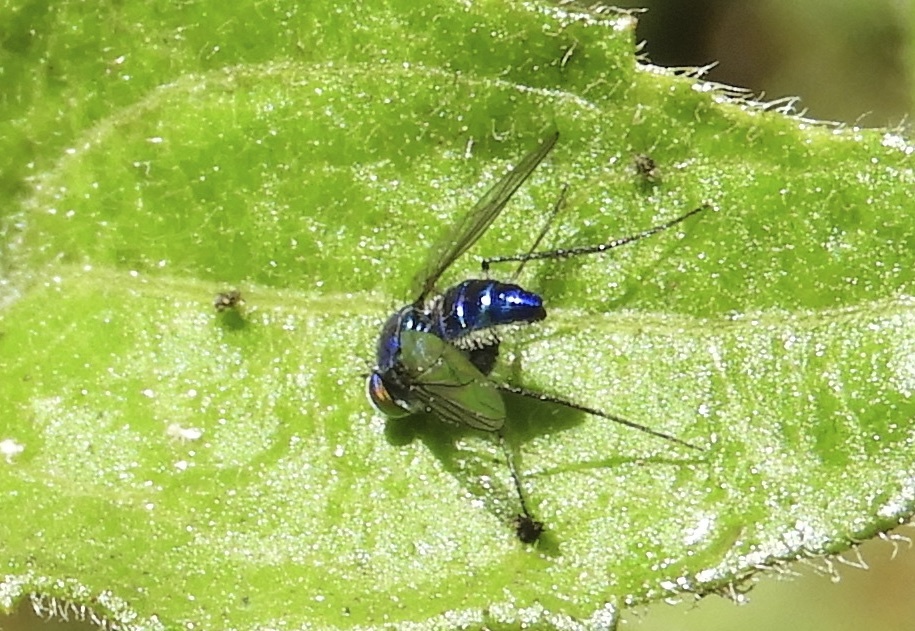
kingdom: Animalia
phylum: Arthropoda
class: Insecta
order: Diptera
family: Dolichopodidae
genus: Condylostylus
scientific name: Condylostylus mundus
